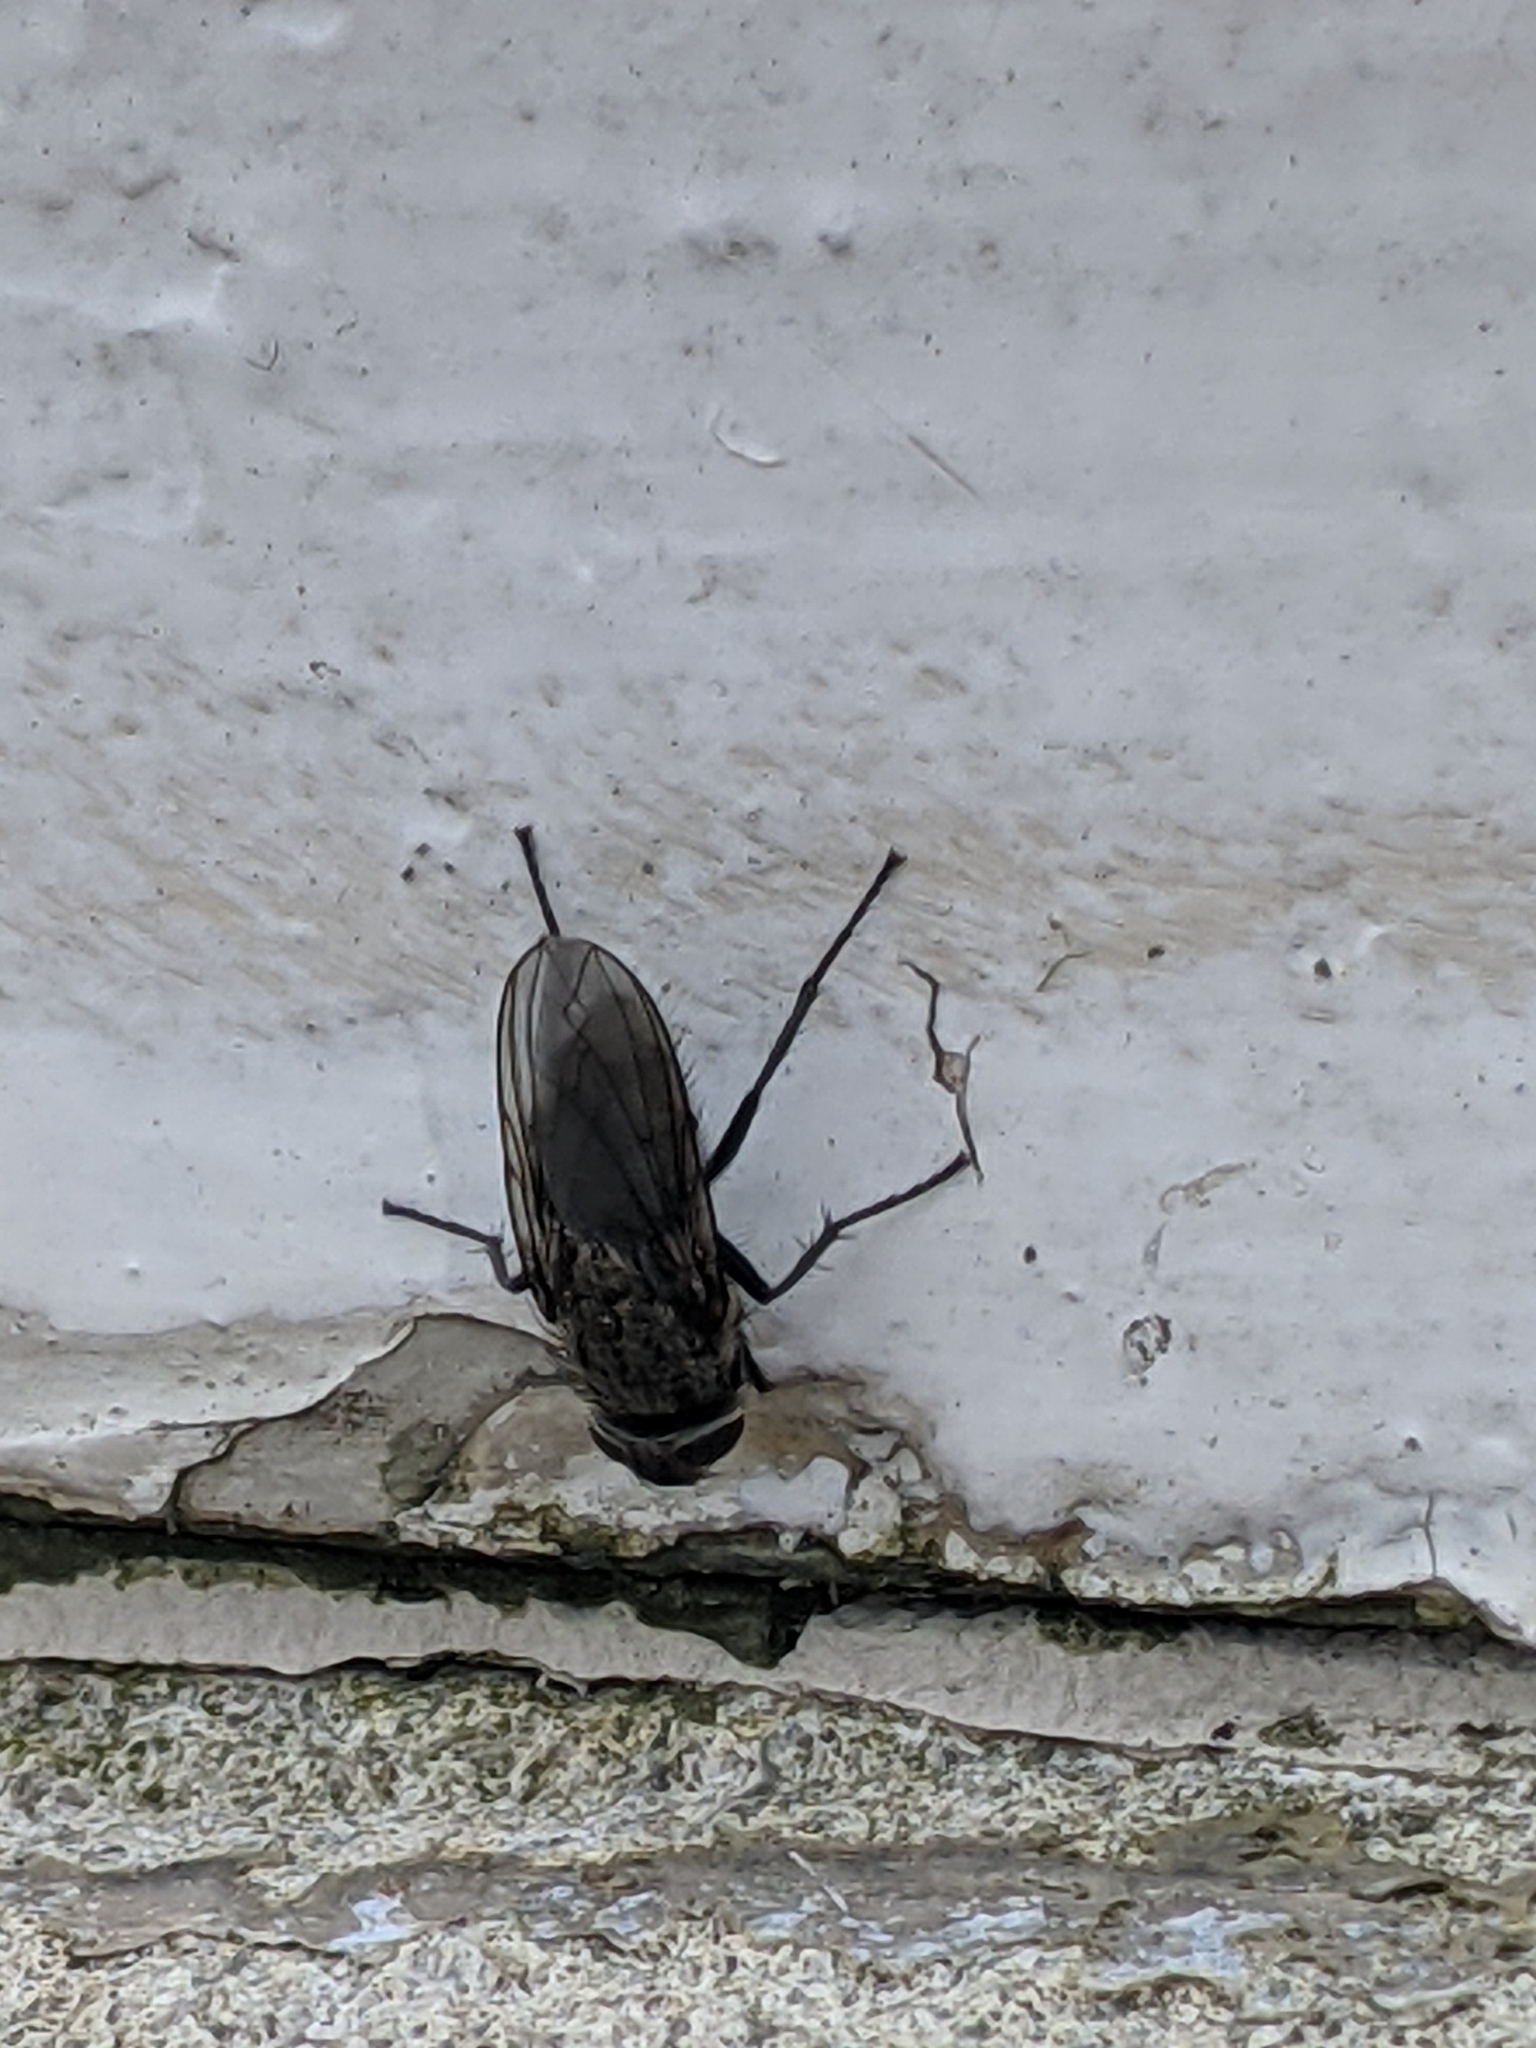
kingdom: Animalia
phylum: Arthropoda
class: Insecta
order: Diptera
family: Polleniidae
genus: Pollenia
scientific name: Pollenia
